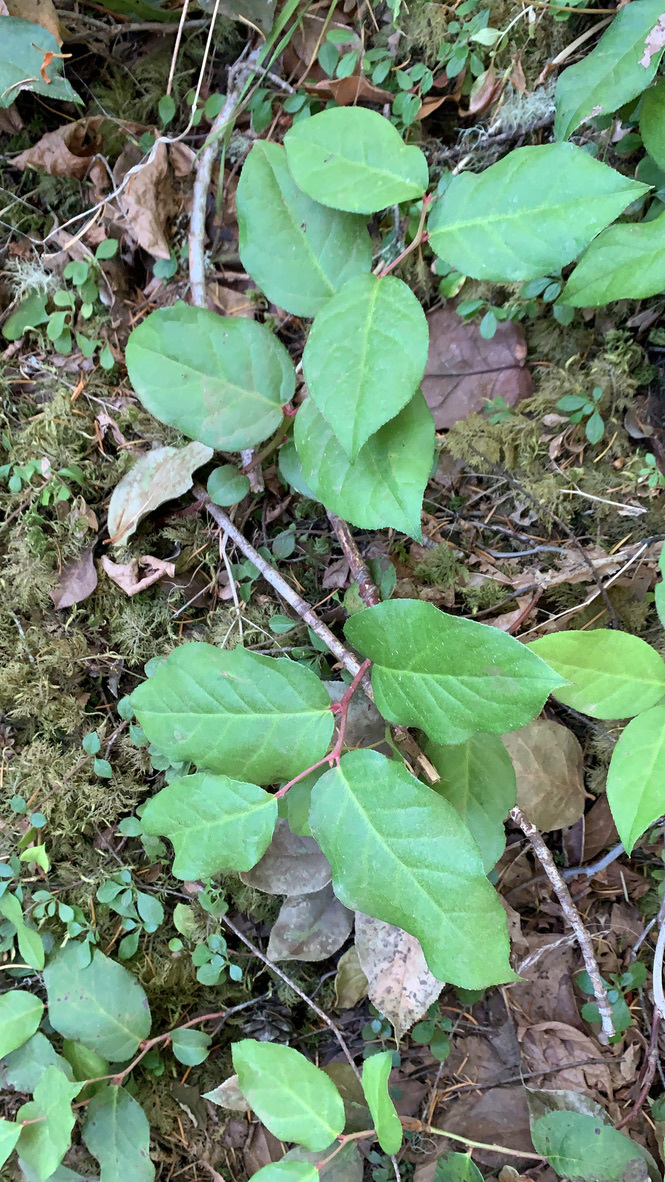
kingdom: Plantae
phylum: Tracheophyta
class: Magnoliopsida
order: Ericales
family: Ericaceae
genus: Gaultheria
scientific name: Gaultheria shallon
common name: Shallon
